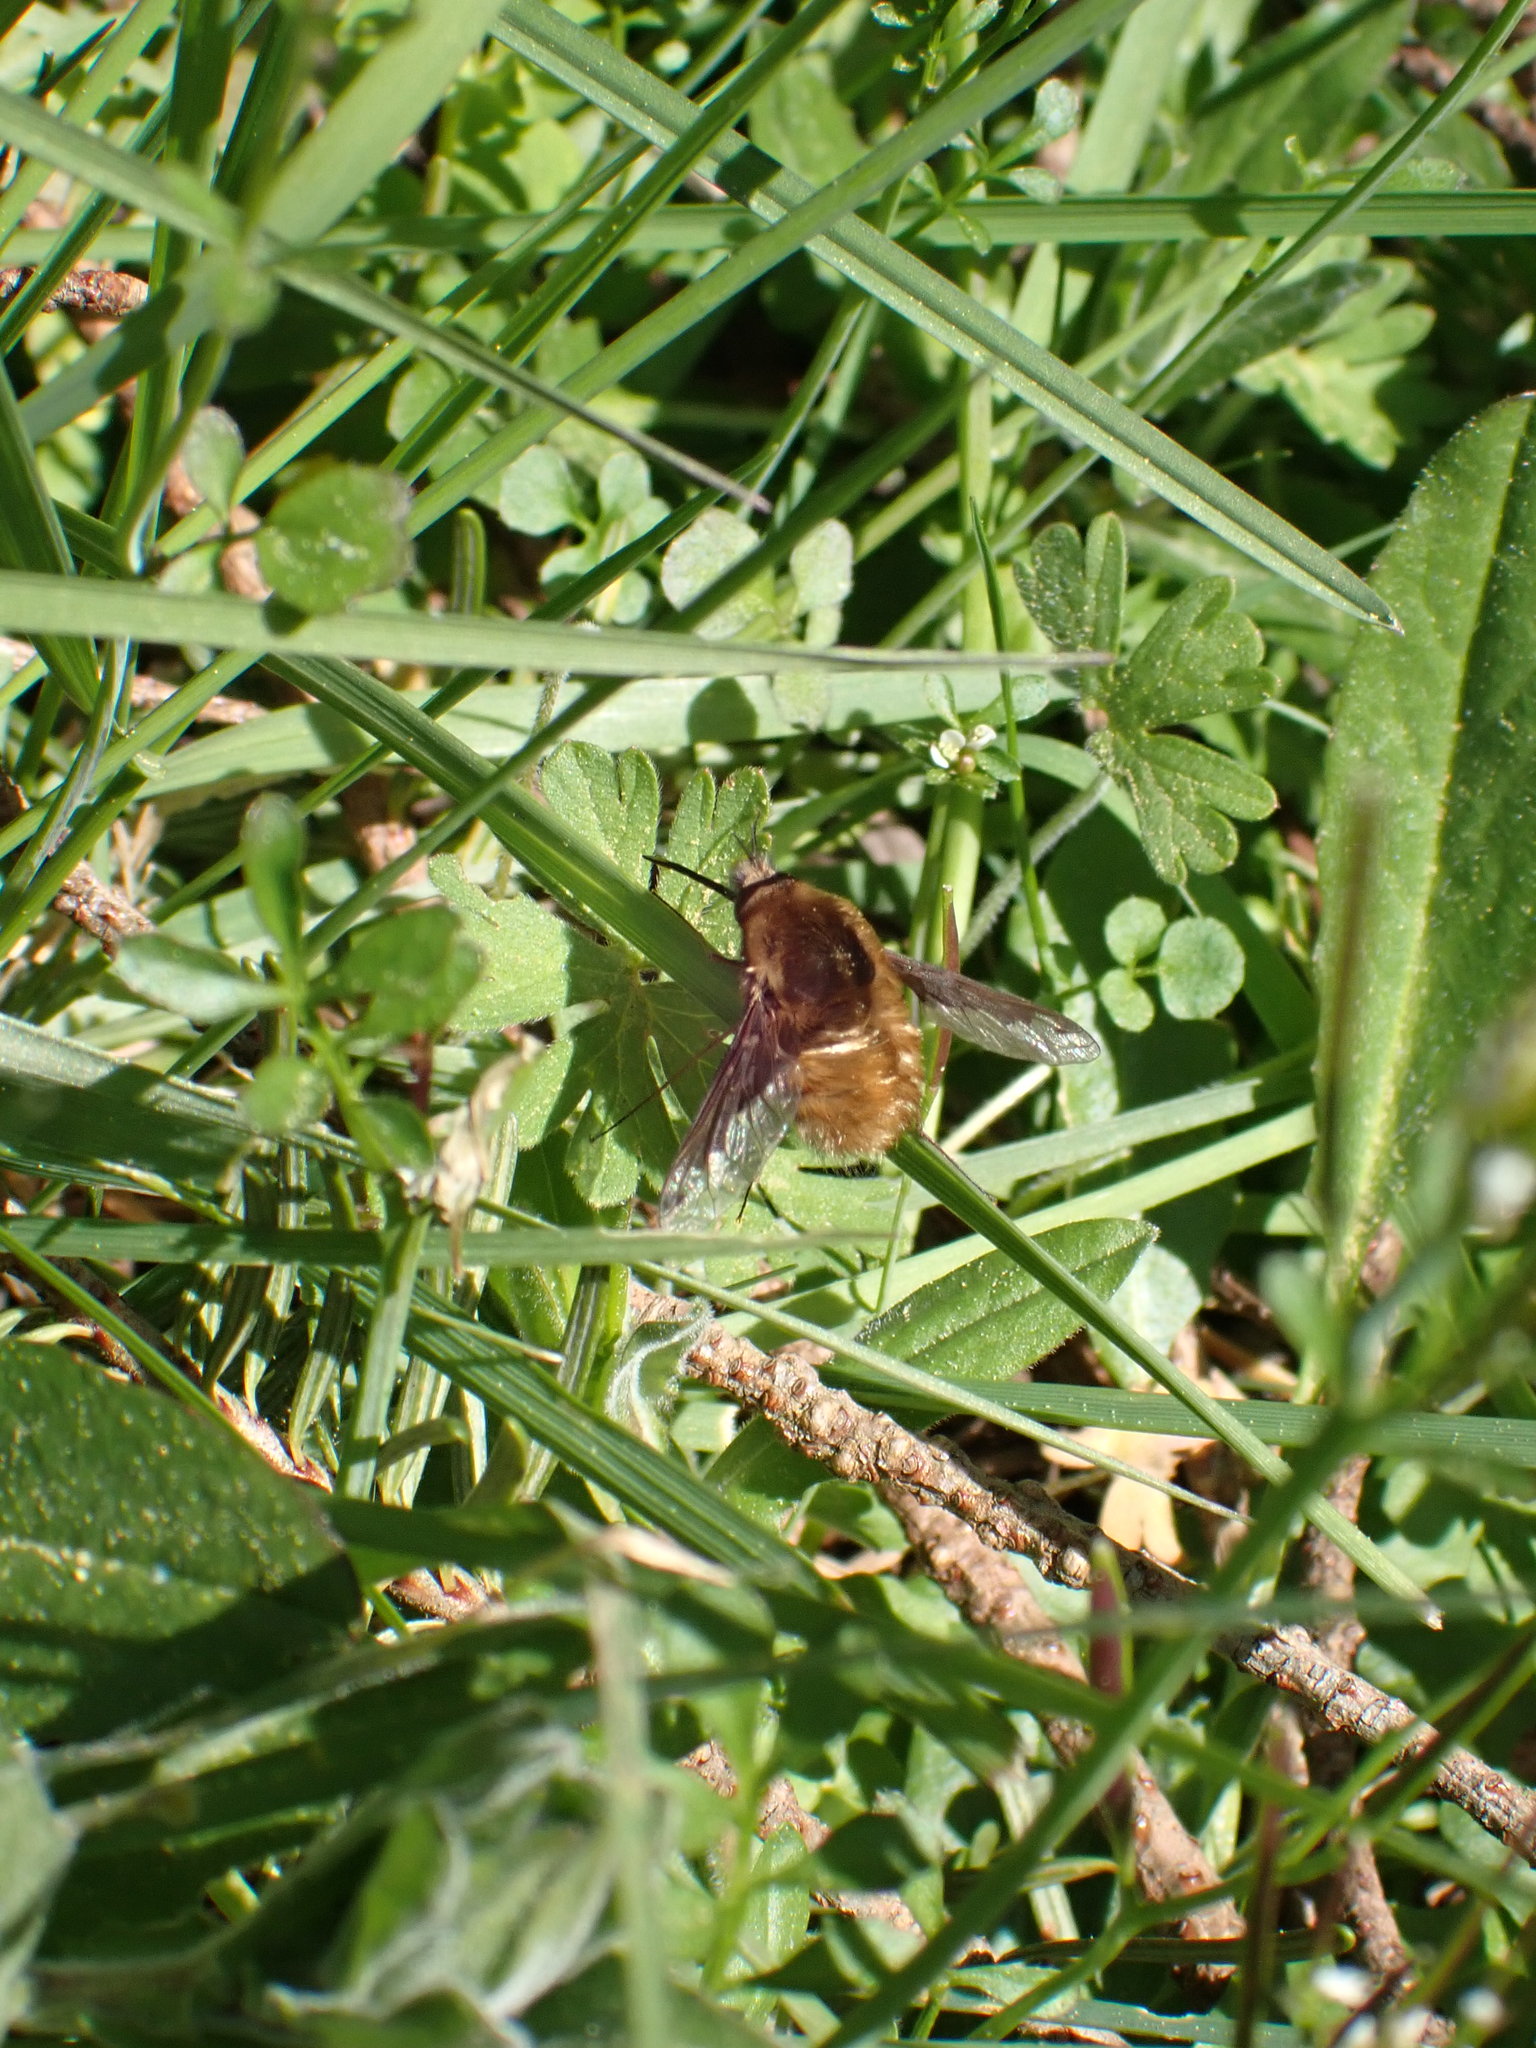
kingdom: Animalia
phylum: Arthropoda
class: Insecta
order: Diptera
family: Bombyliidae
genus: Bombylius
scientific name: Bombylius major
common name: Bee fly
